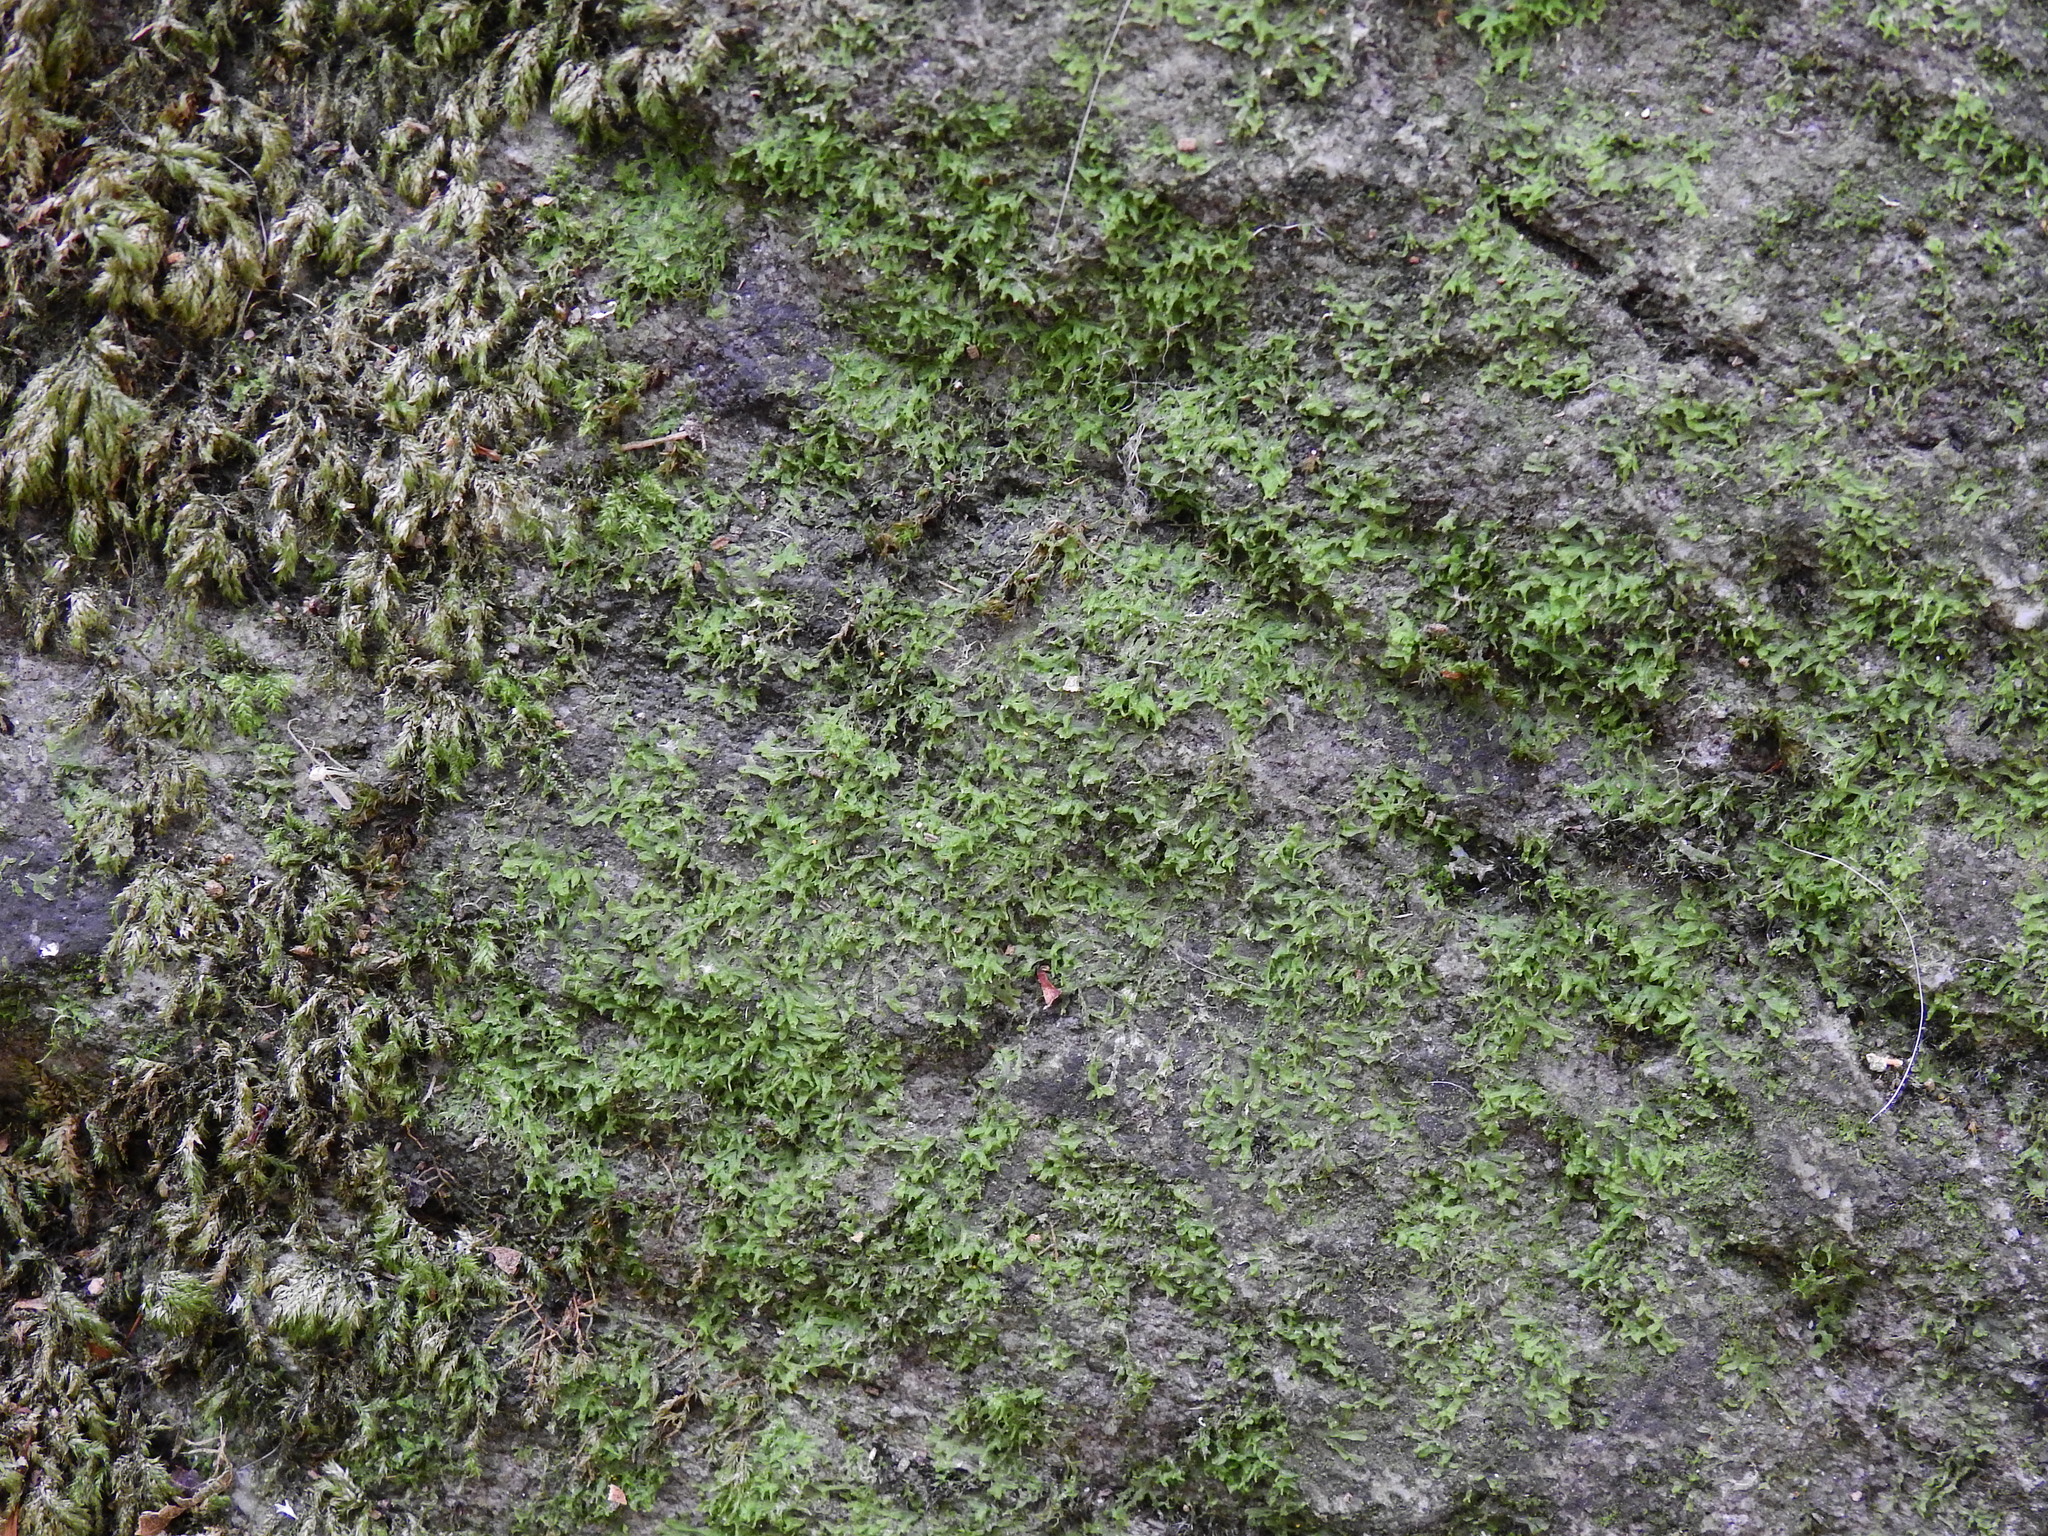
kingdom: Plantae
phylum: Marchantiophyta
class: Jungermanniopsida
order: Metzgeriales
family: Metzgeriaceae
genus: Metzgeria
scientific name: Metzgeria conjugata
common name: Rock veilwort
